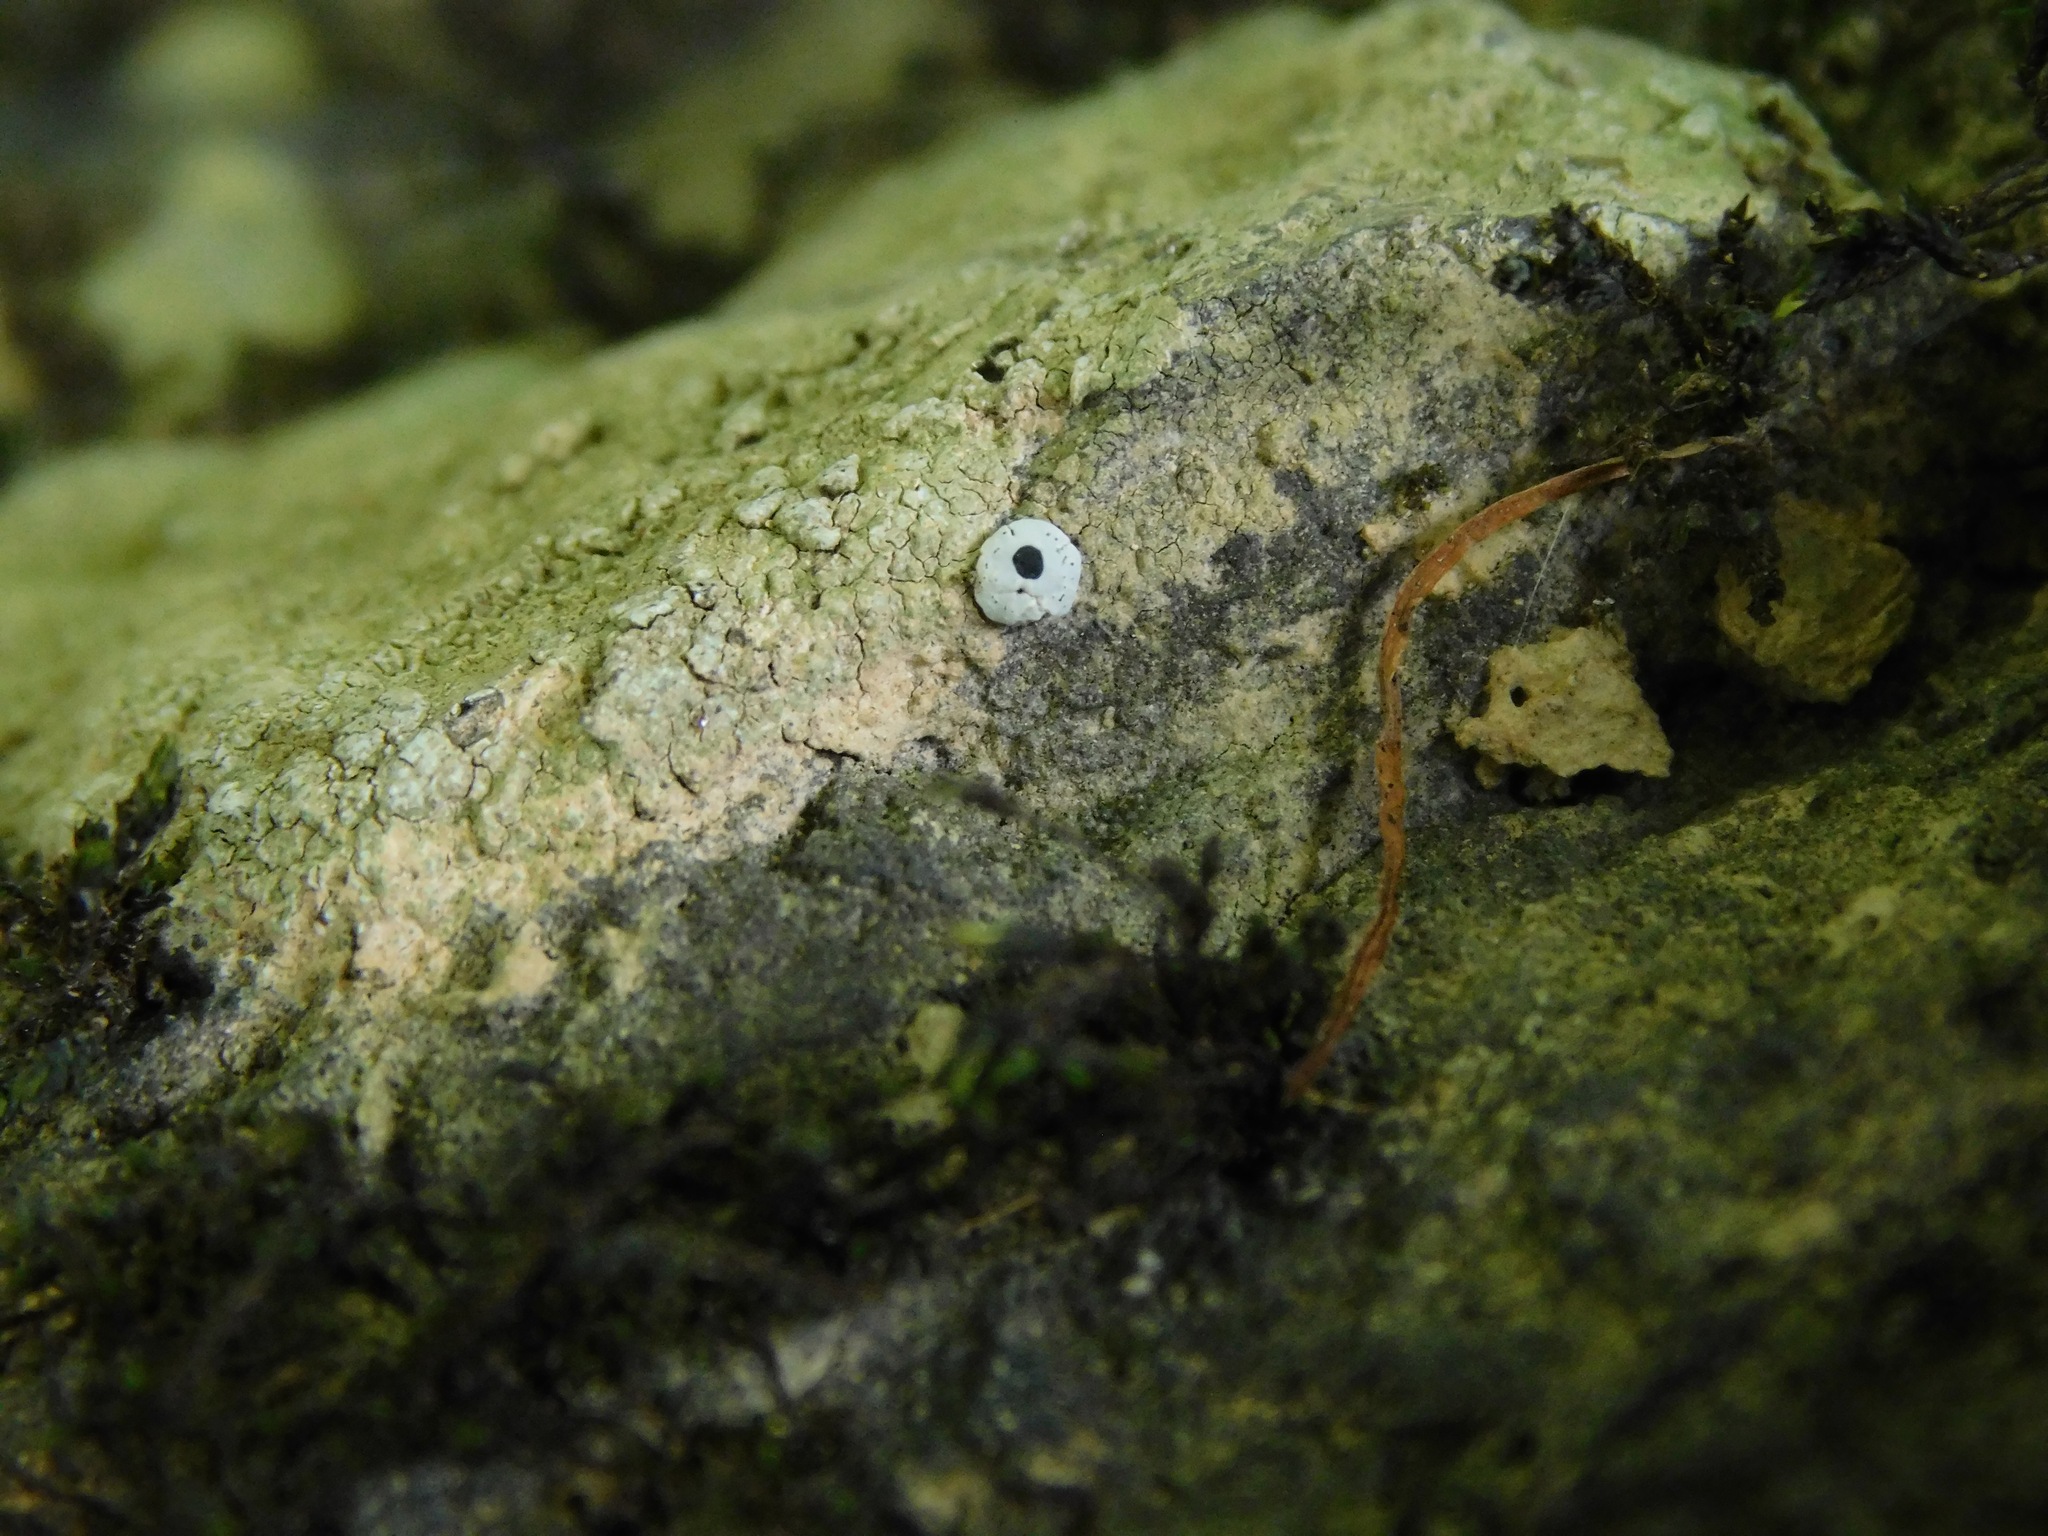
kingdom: Fungi
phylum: Ascomycota
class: Lecanoromycetes
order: Caliciales
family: Caliciaceae
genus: Dermiscellum
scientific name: Dermiscellum oulocheilum
